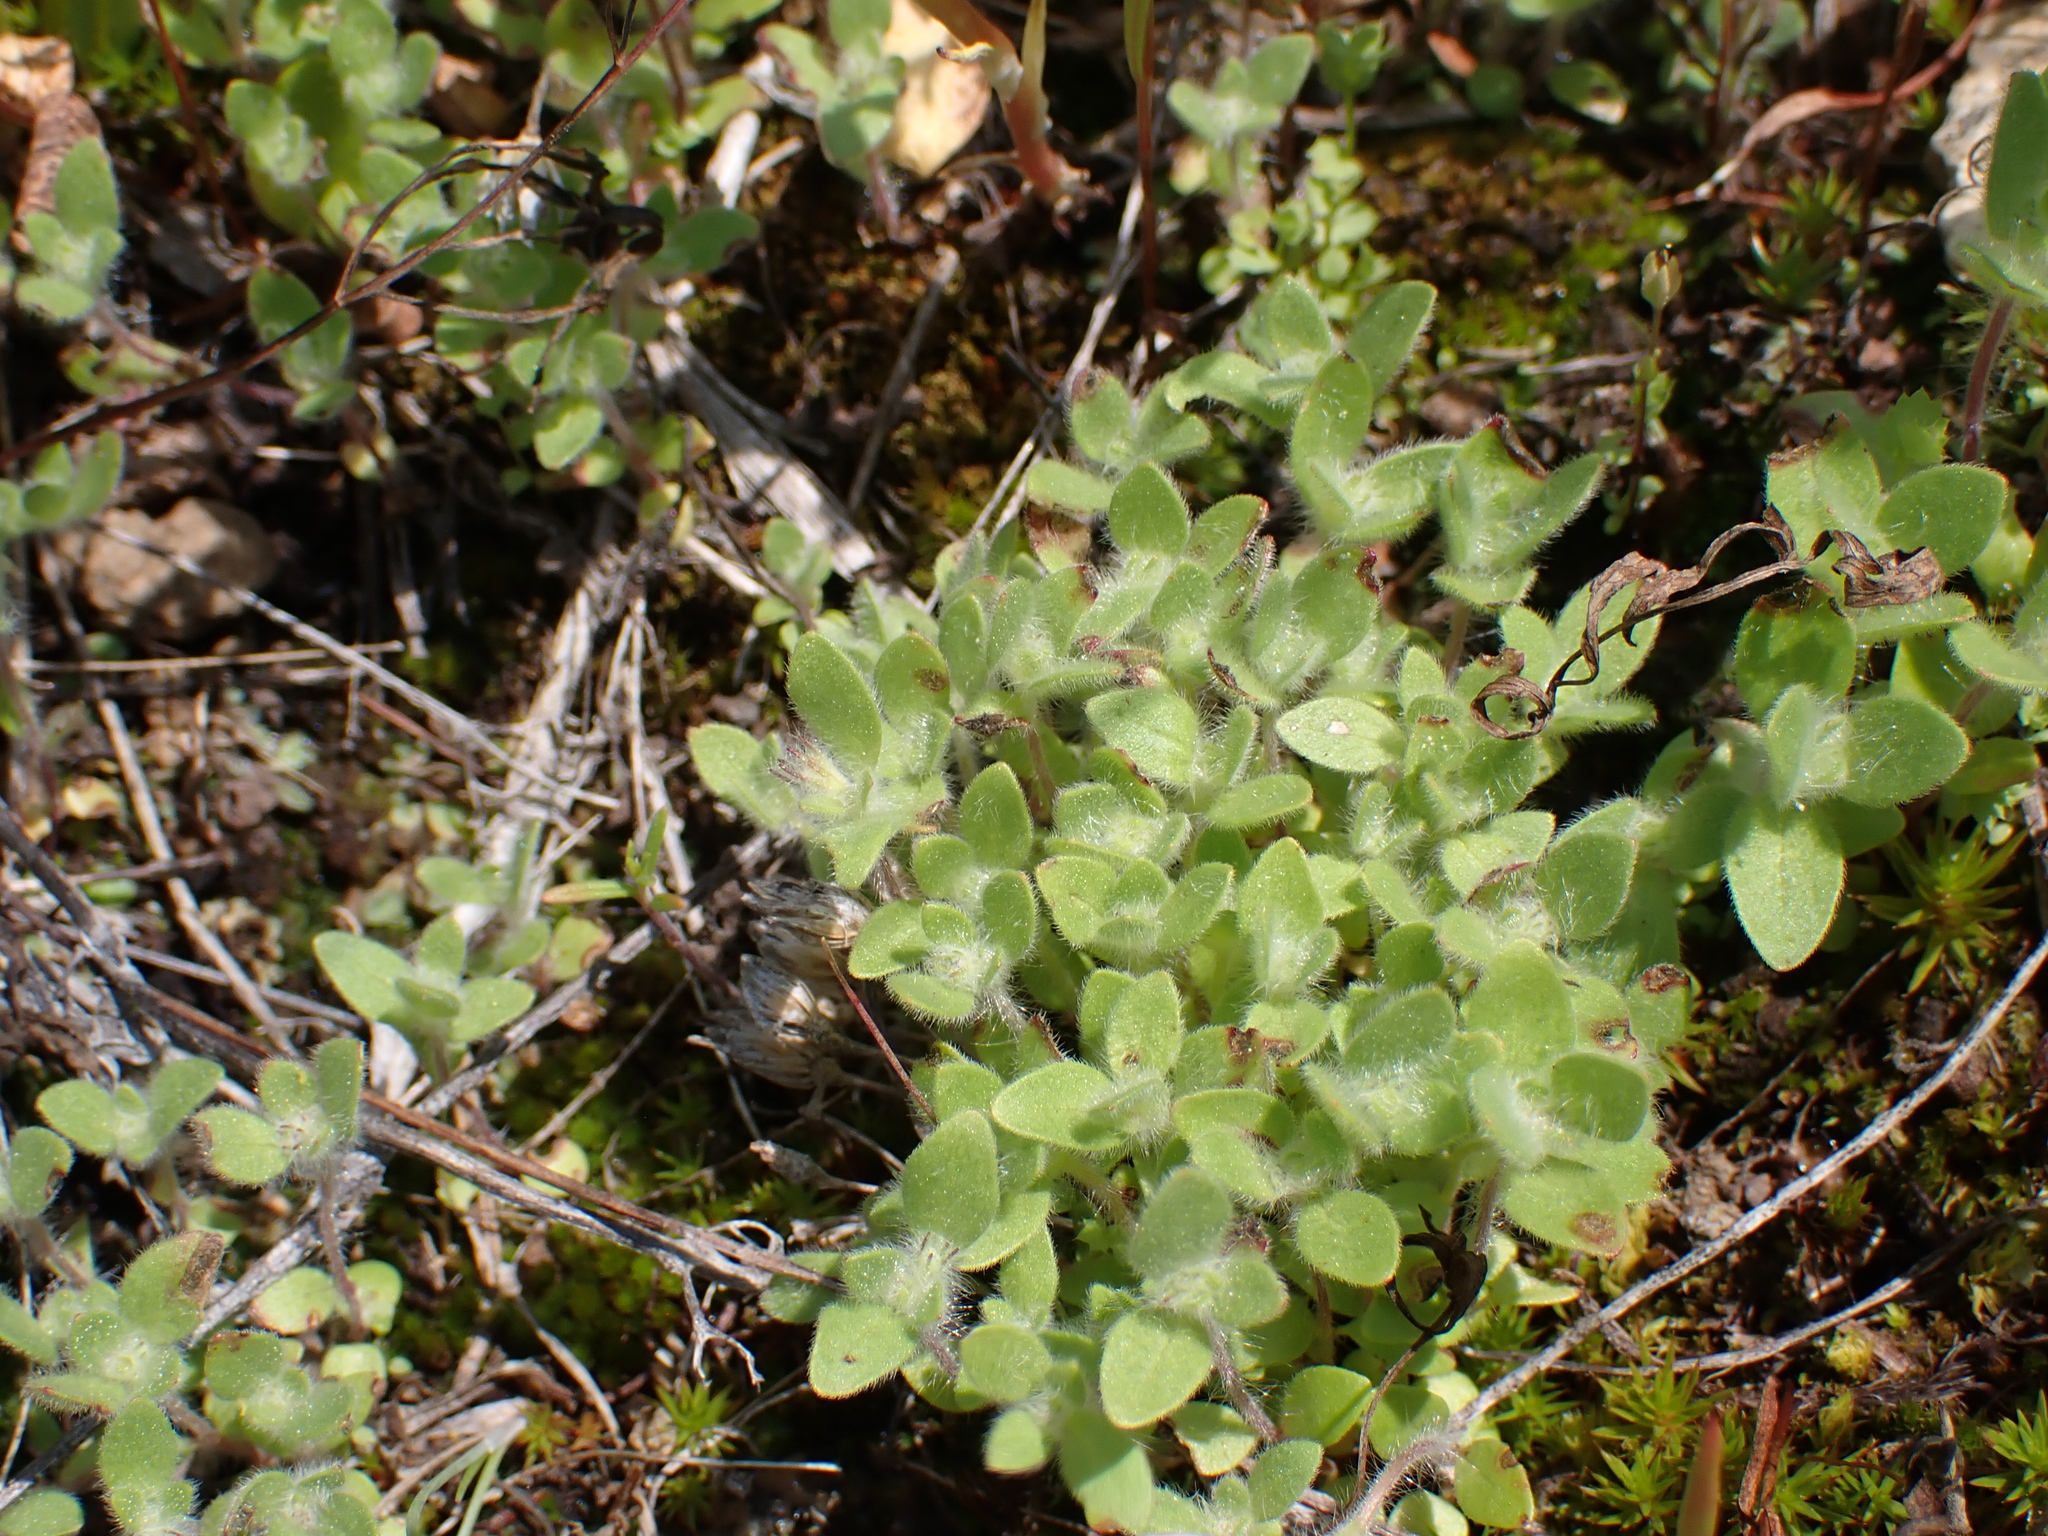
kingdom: Plantae
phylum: Tracheophyta
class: Magnoliopsida
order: Lamiales
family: Lamiaceae
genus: Trichostema
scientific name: Trichostema oblongum
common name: Mountain bluecurls
